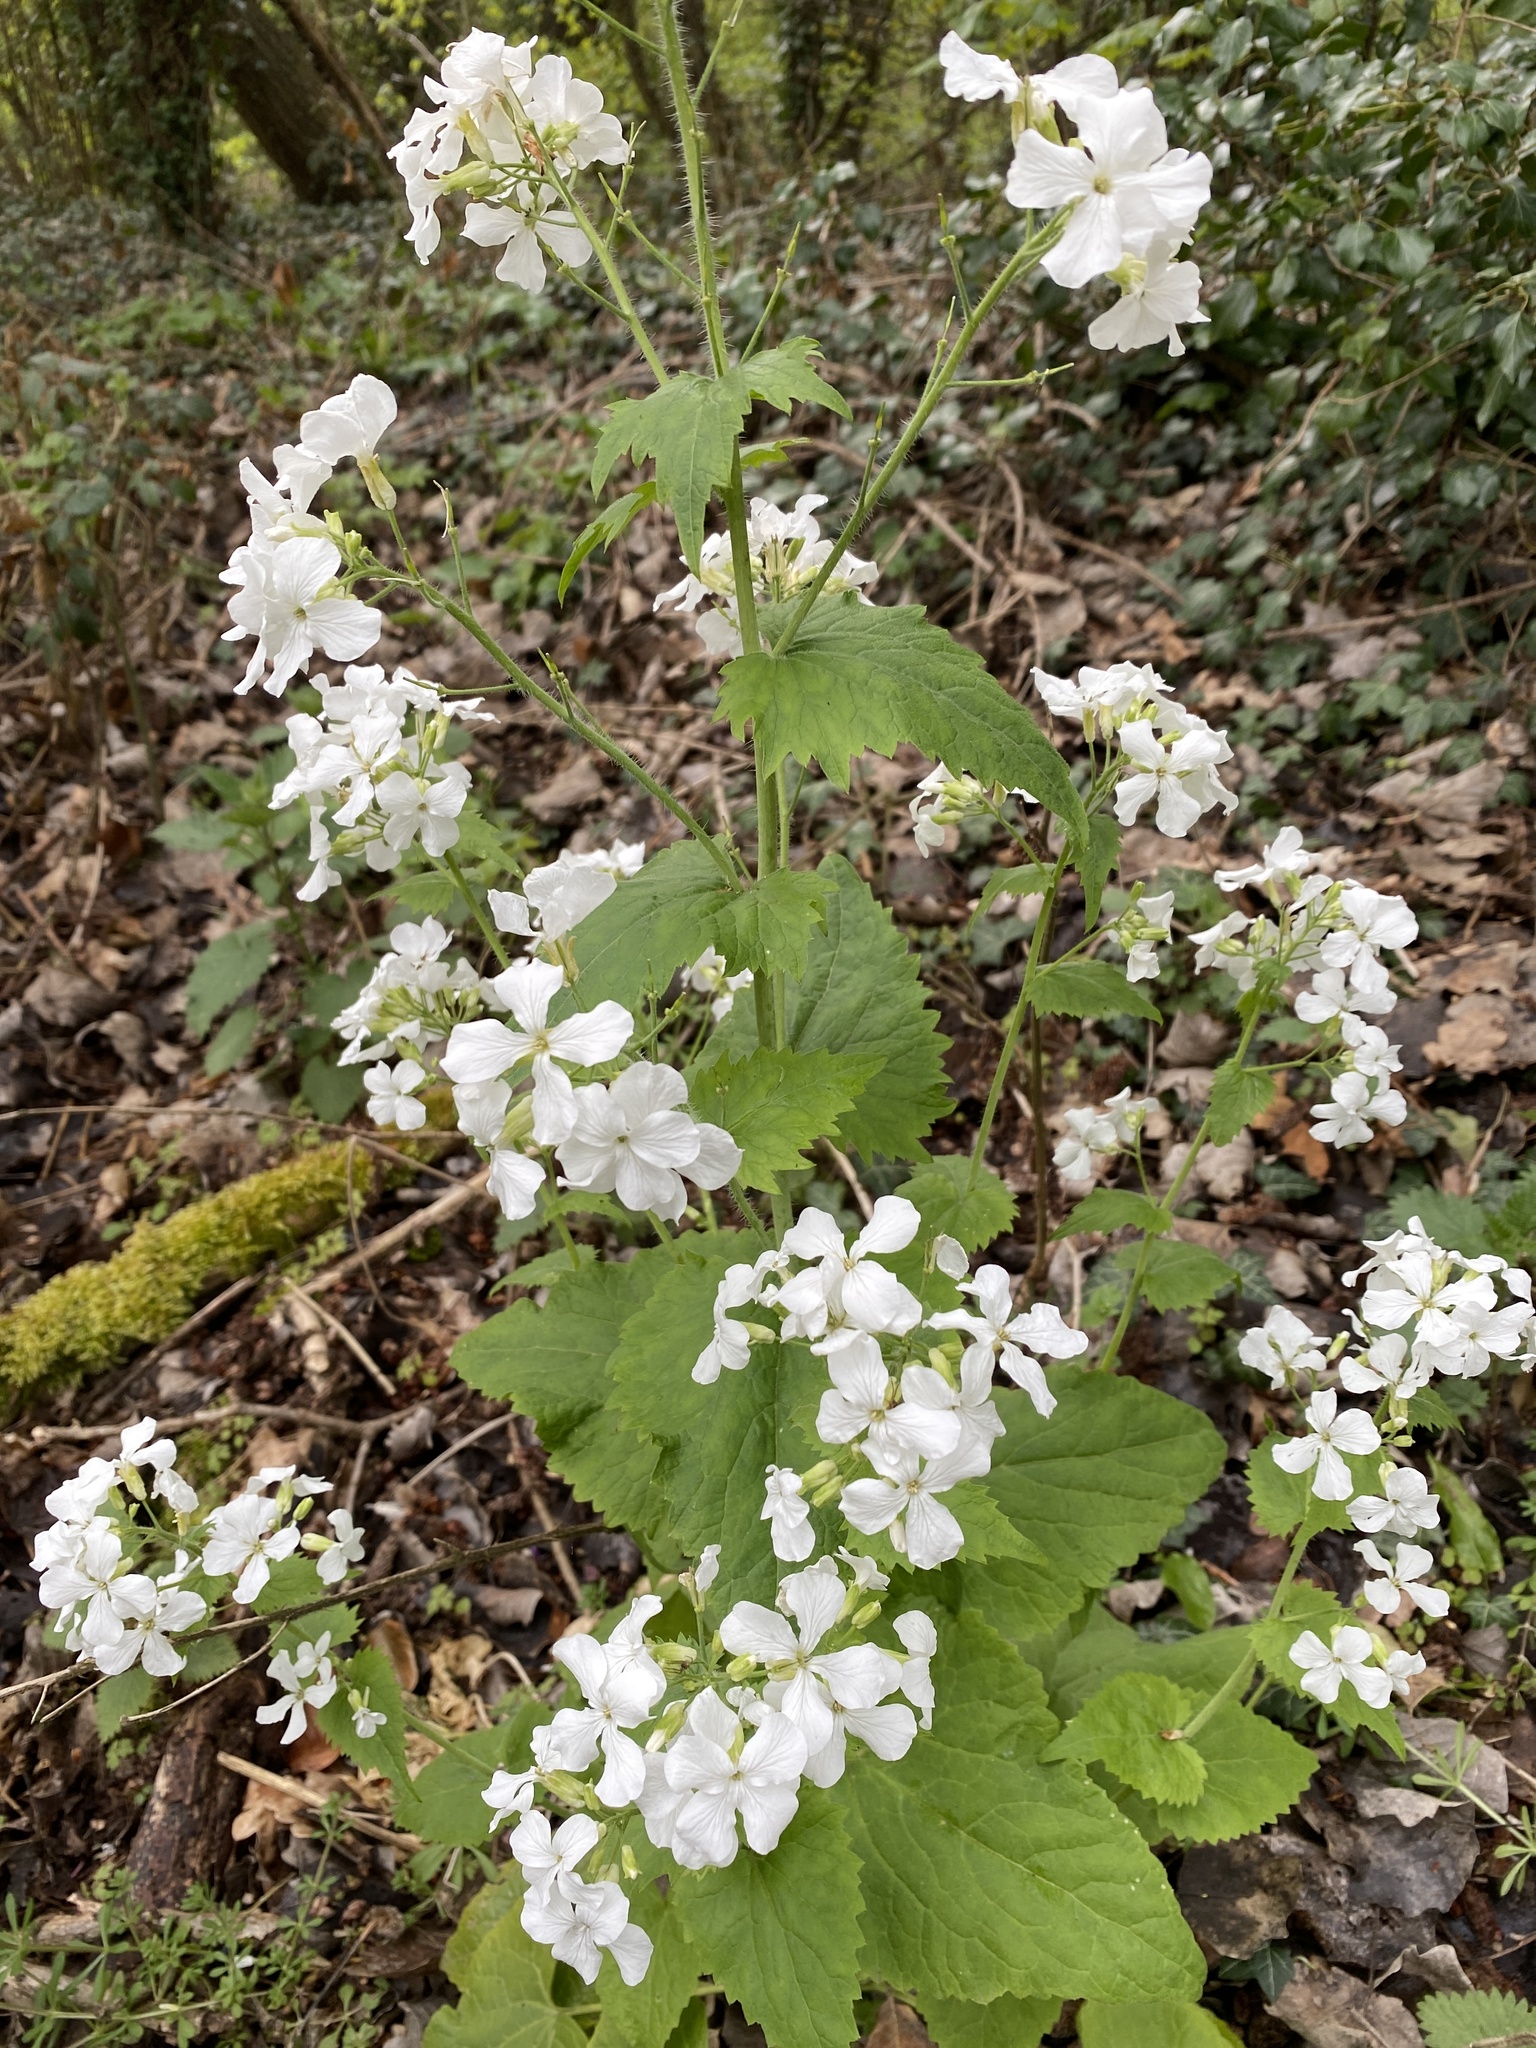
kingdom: Plantae
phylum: Tracheophyta
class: Magnoliopsida
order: Brassicales
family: Brassicaceae
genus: Lunaria
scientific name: Lunaria annua
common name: Honesty
